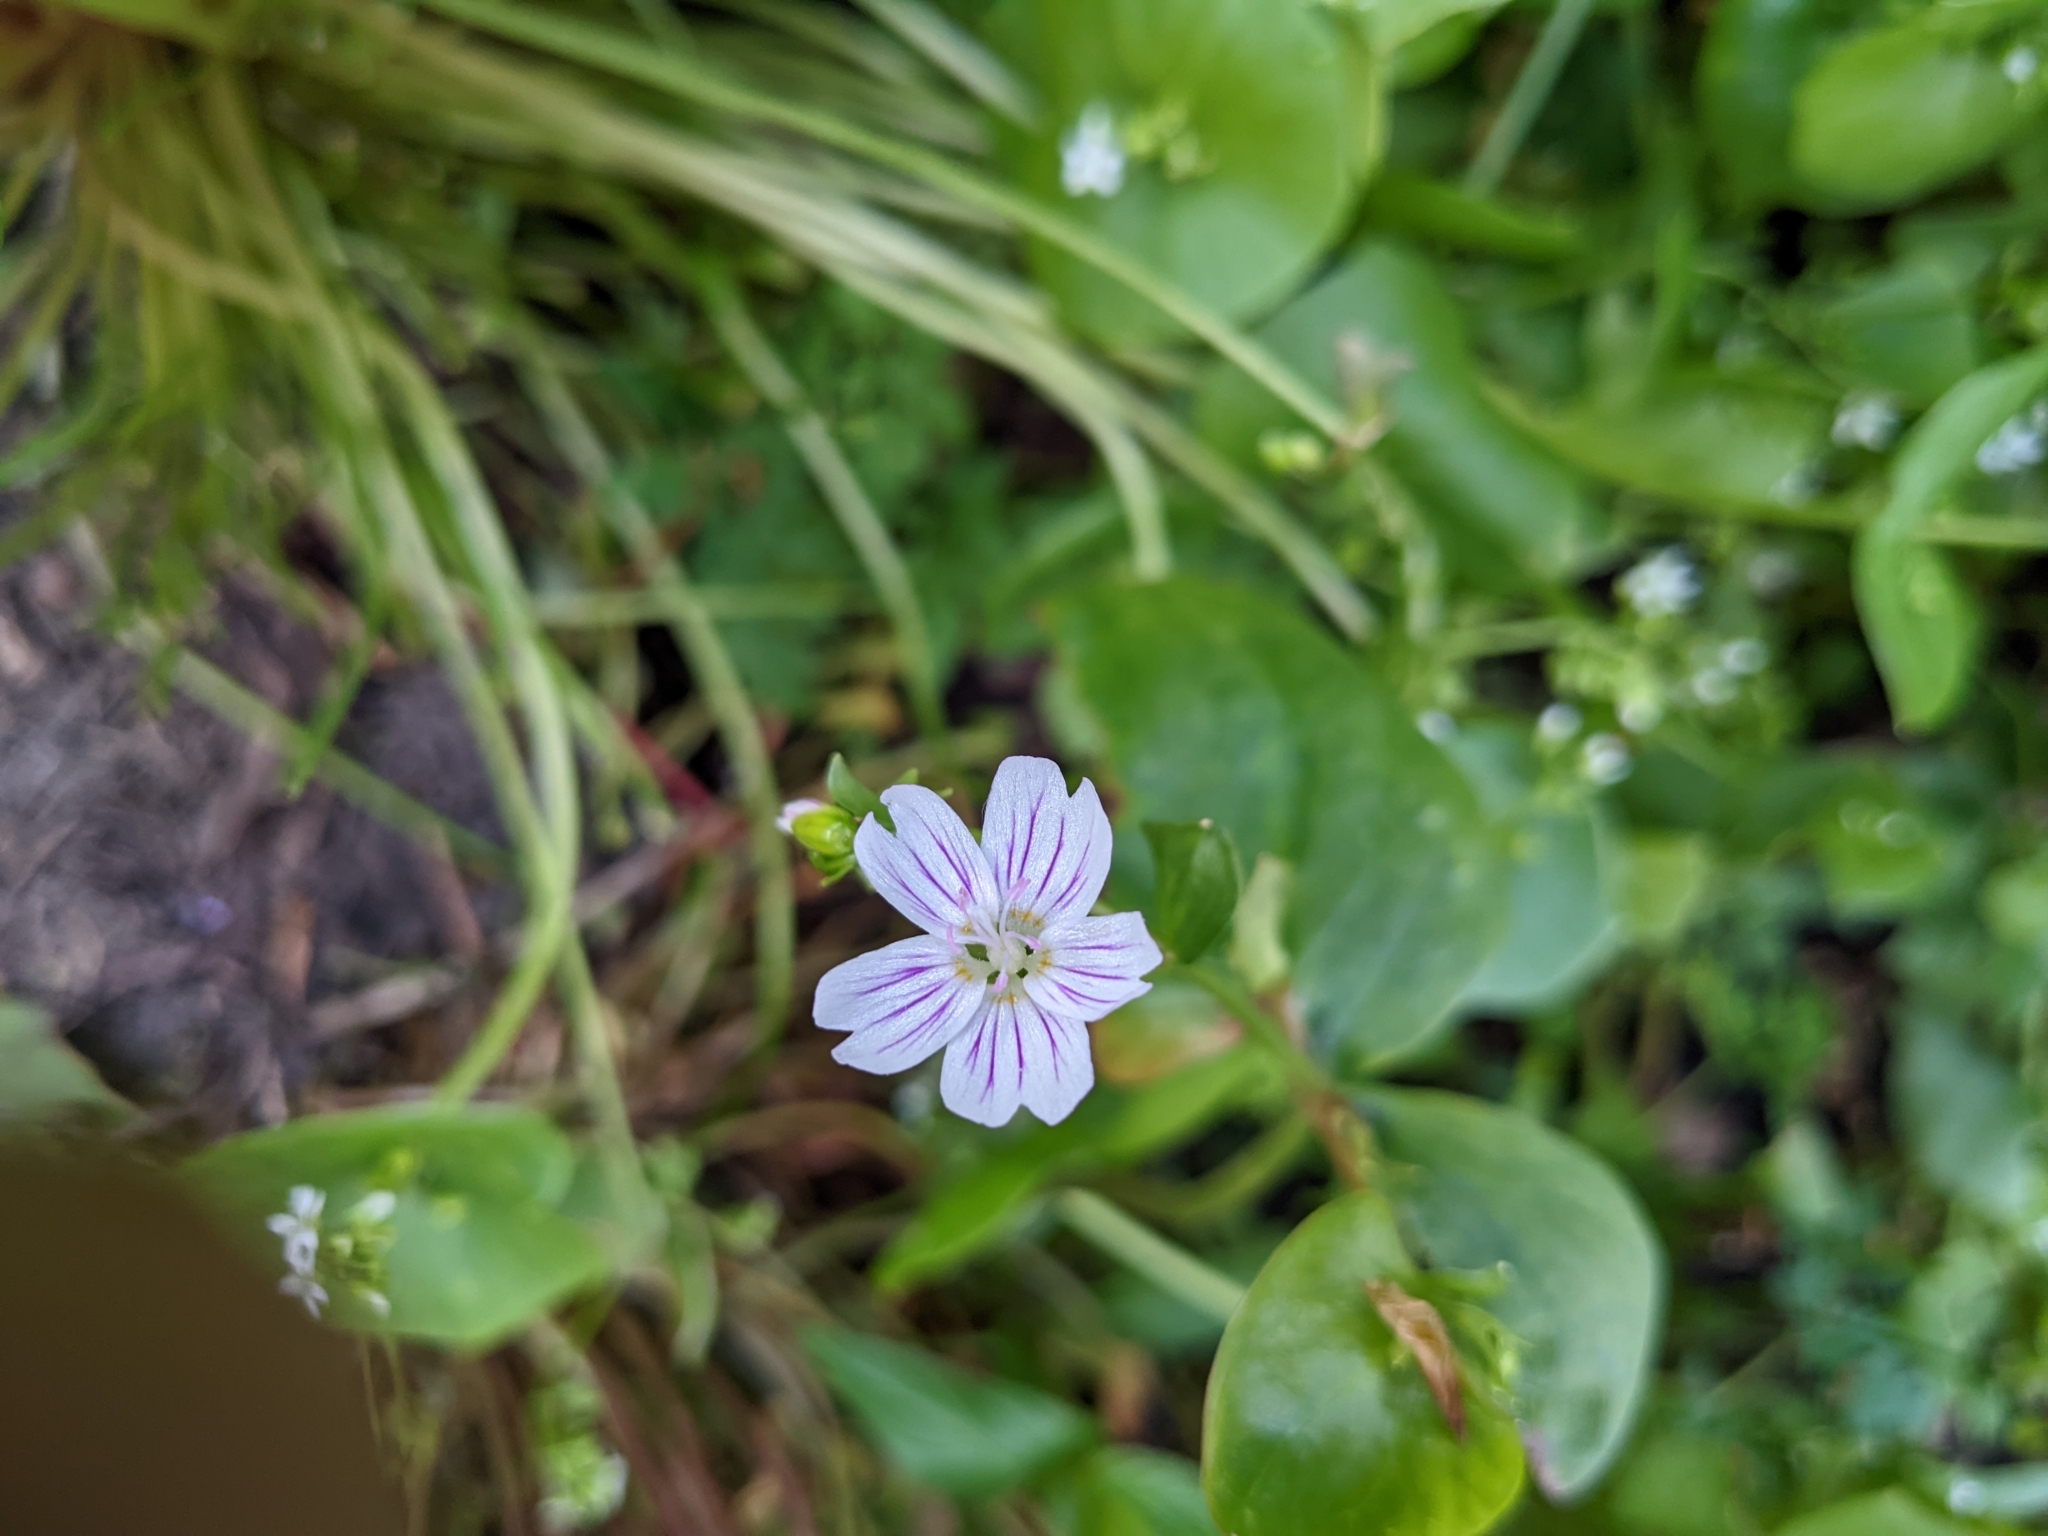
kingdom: Plantae
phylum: Tracheophyta
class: Magnoliopsida
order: Caryophyllales
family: Montiaceae
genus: Claytonia
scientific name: Claytonia sibirica
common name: Pink purslane
